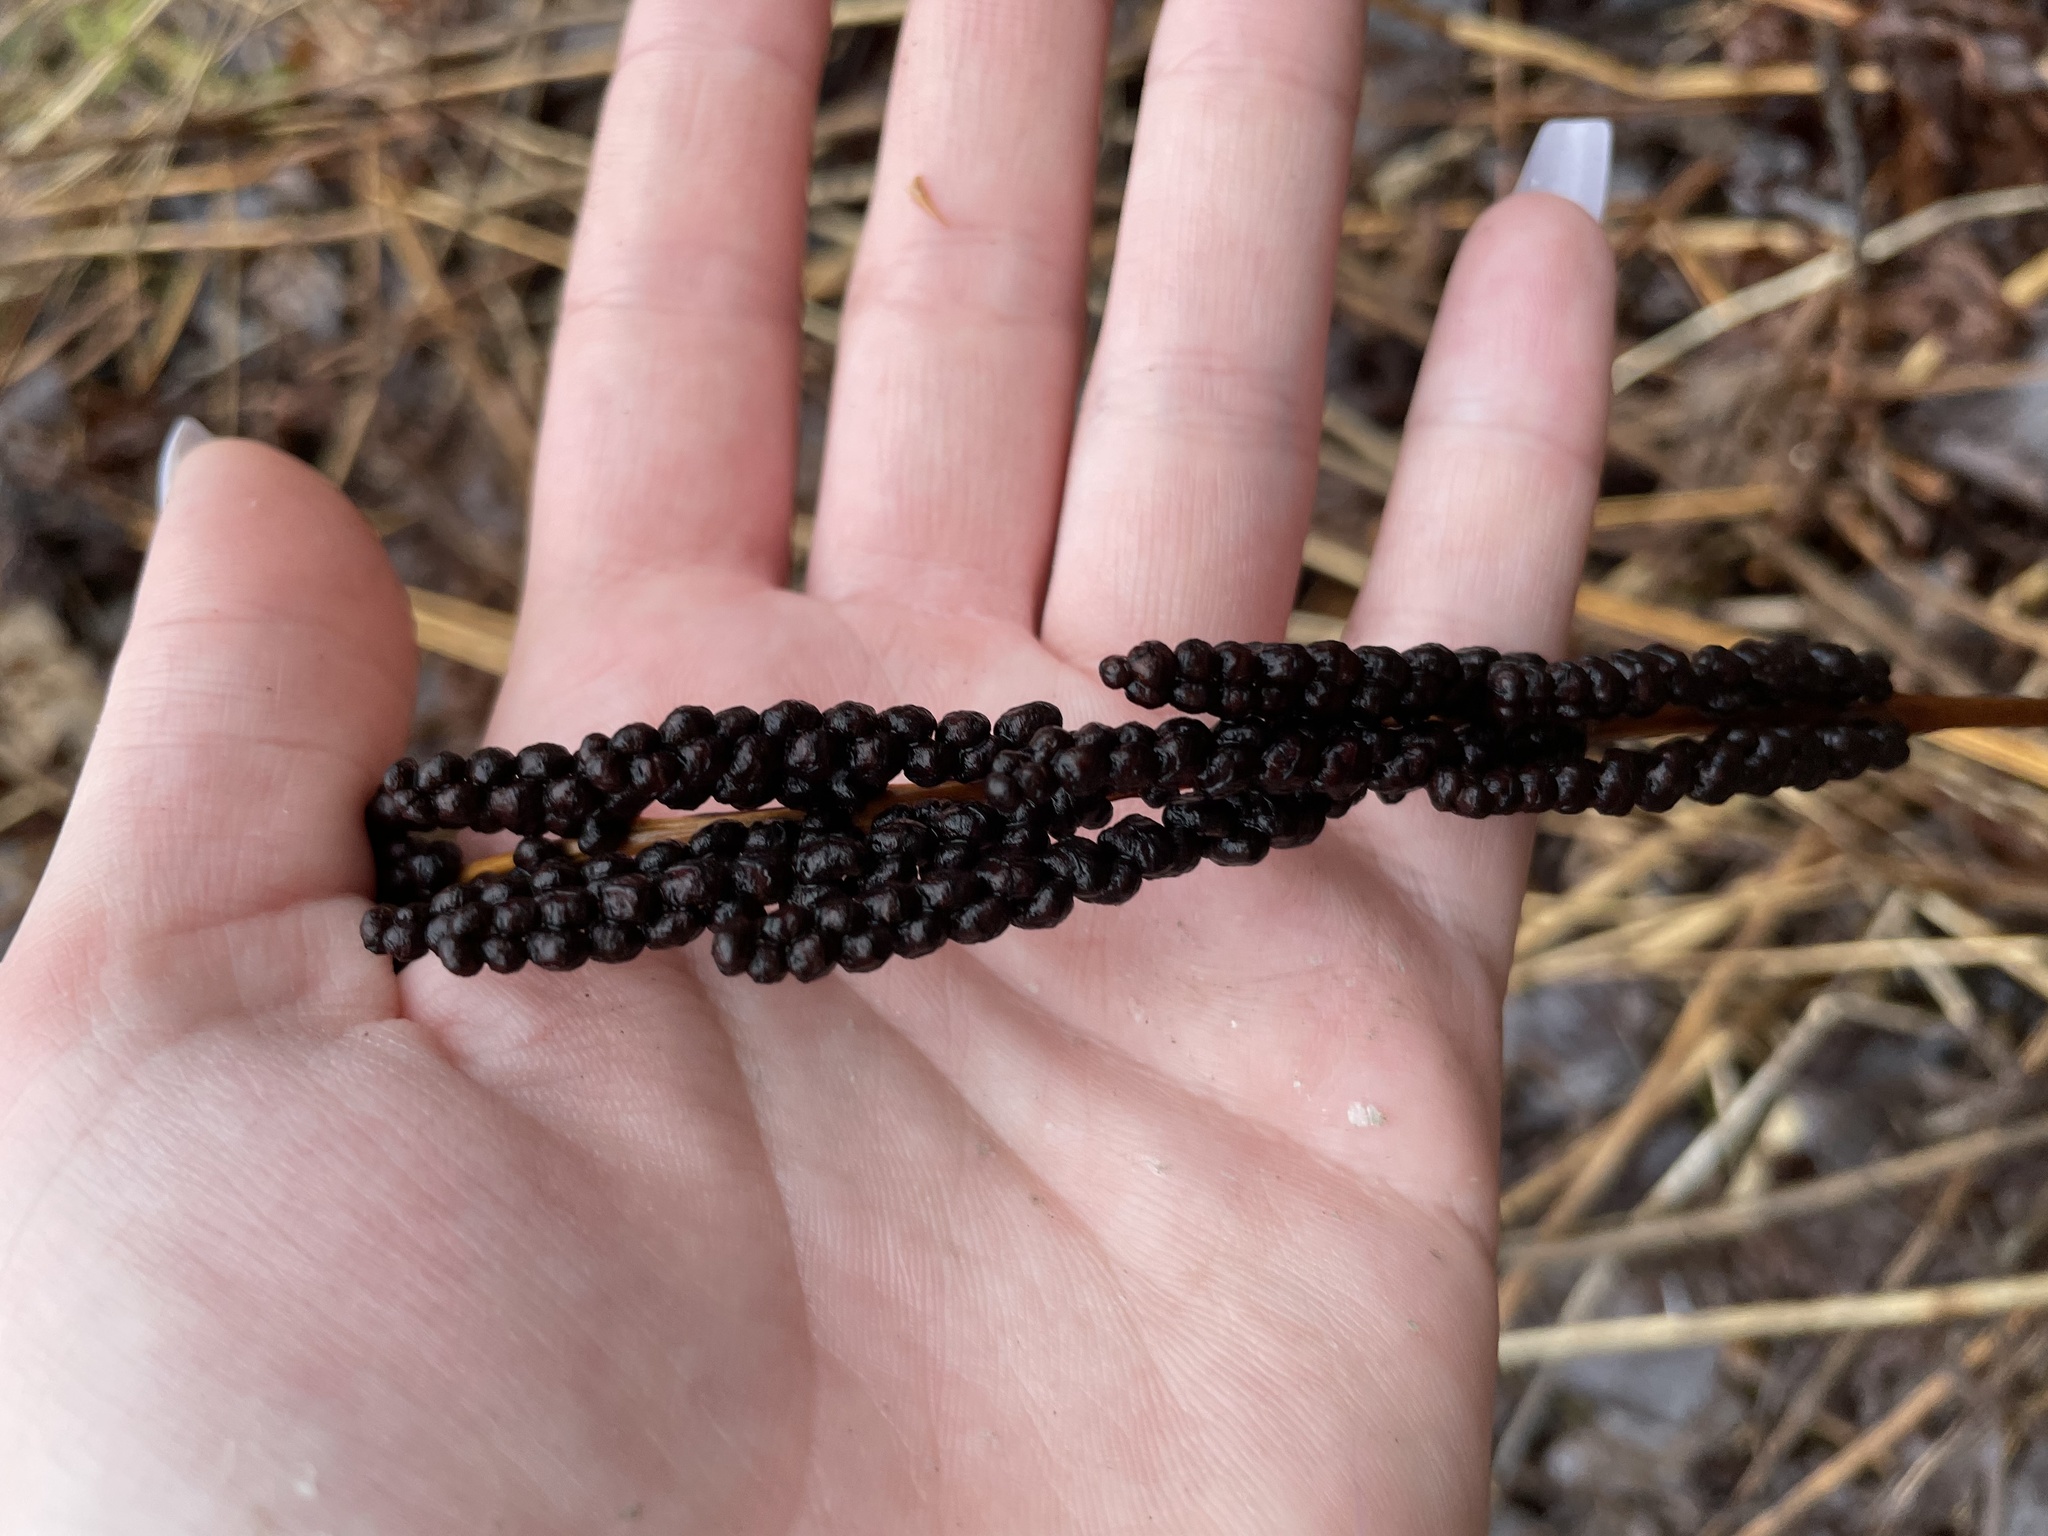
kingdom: Plantae
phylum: Tracheophyta
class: Polypodiopsida
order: Polypodiales
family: Onocleaceae
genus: Onoclea
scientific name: Onoclea sensibilis
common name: Sensitive fern
